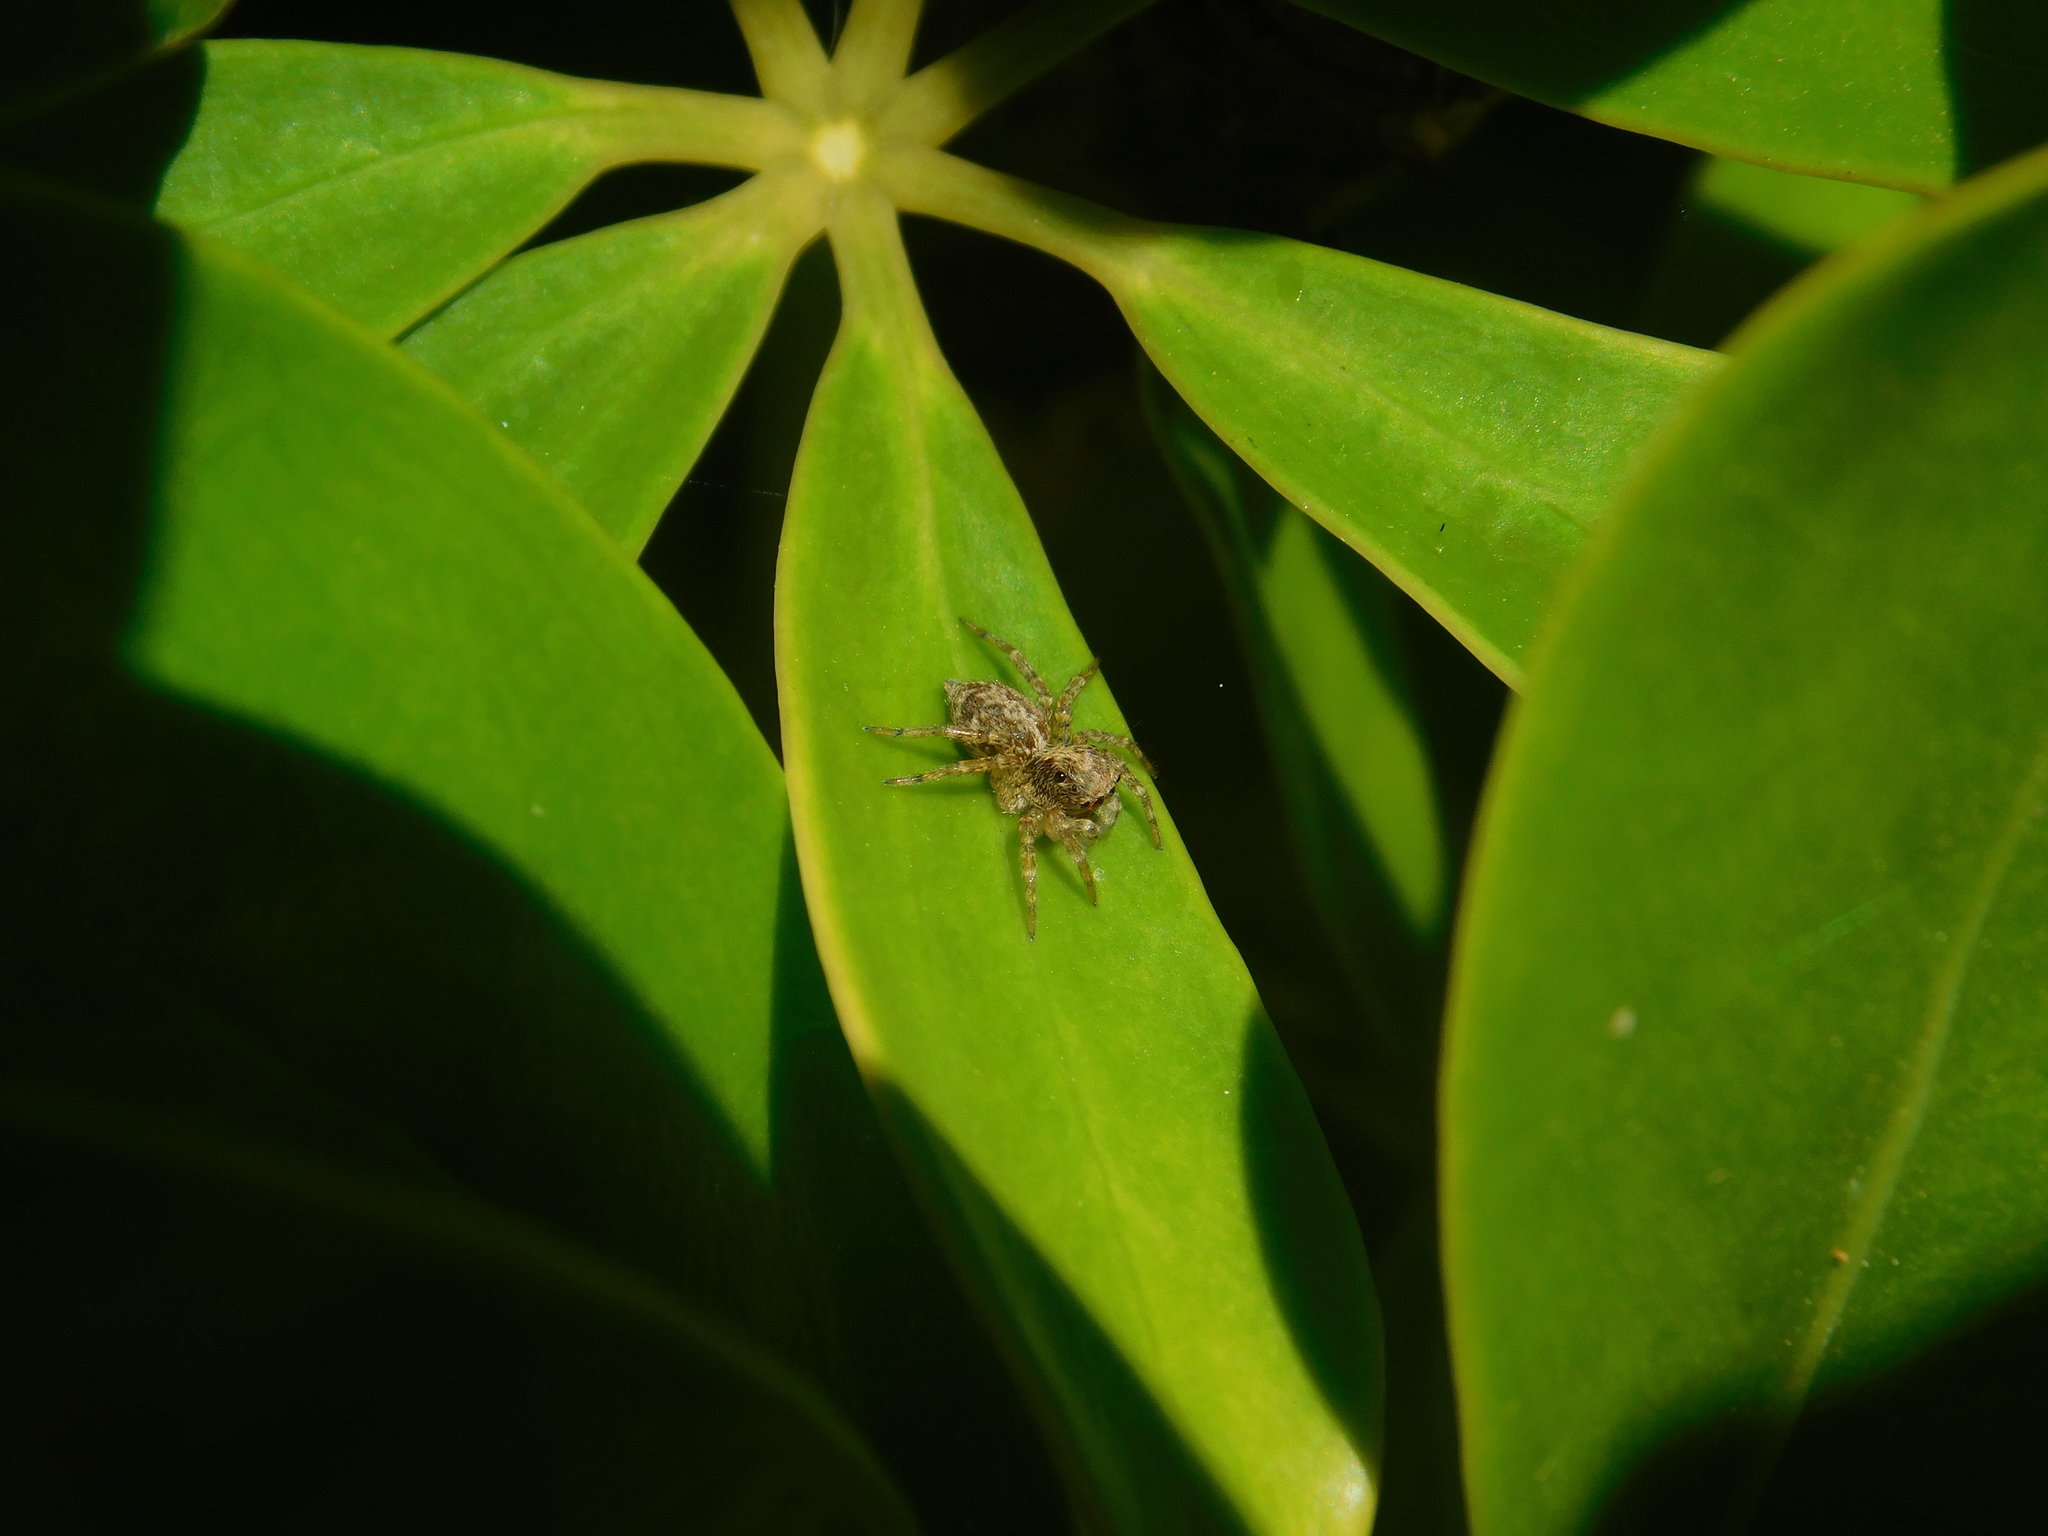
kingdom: Animalia
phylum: Arthropoda
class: Arachnida
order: Araneae
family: Salticidae
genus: Saitis
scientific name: Saitis variegatus
